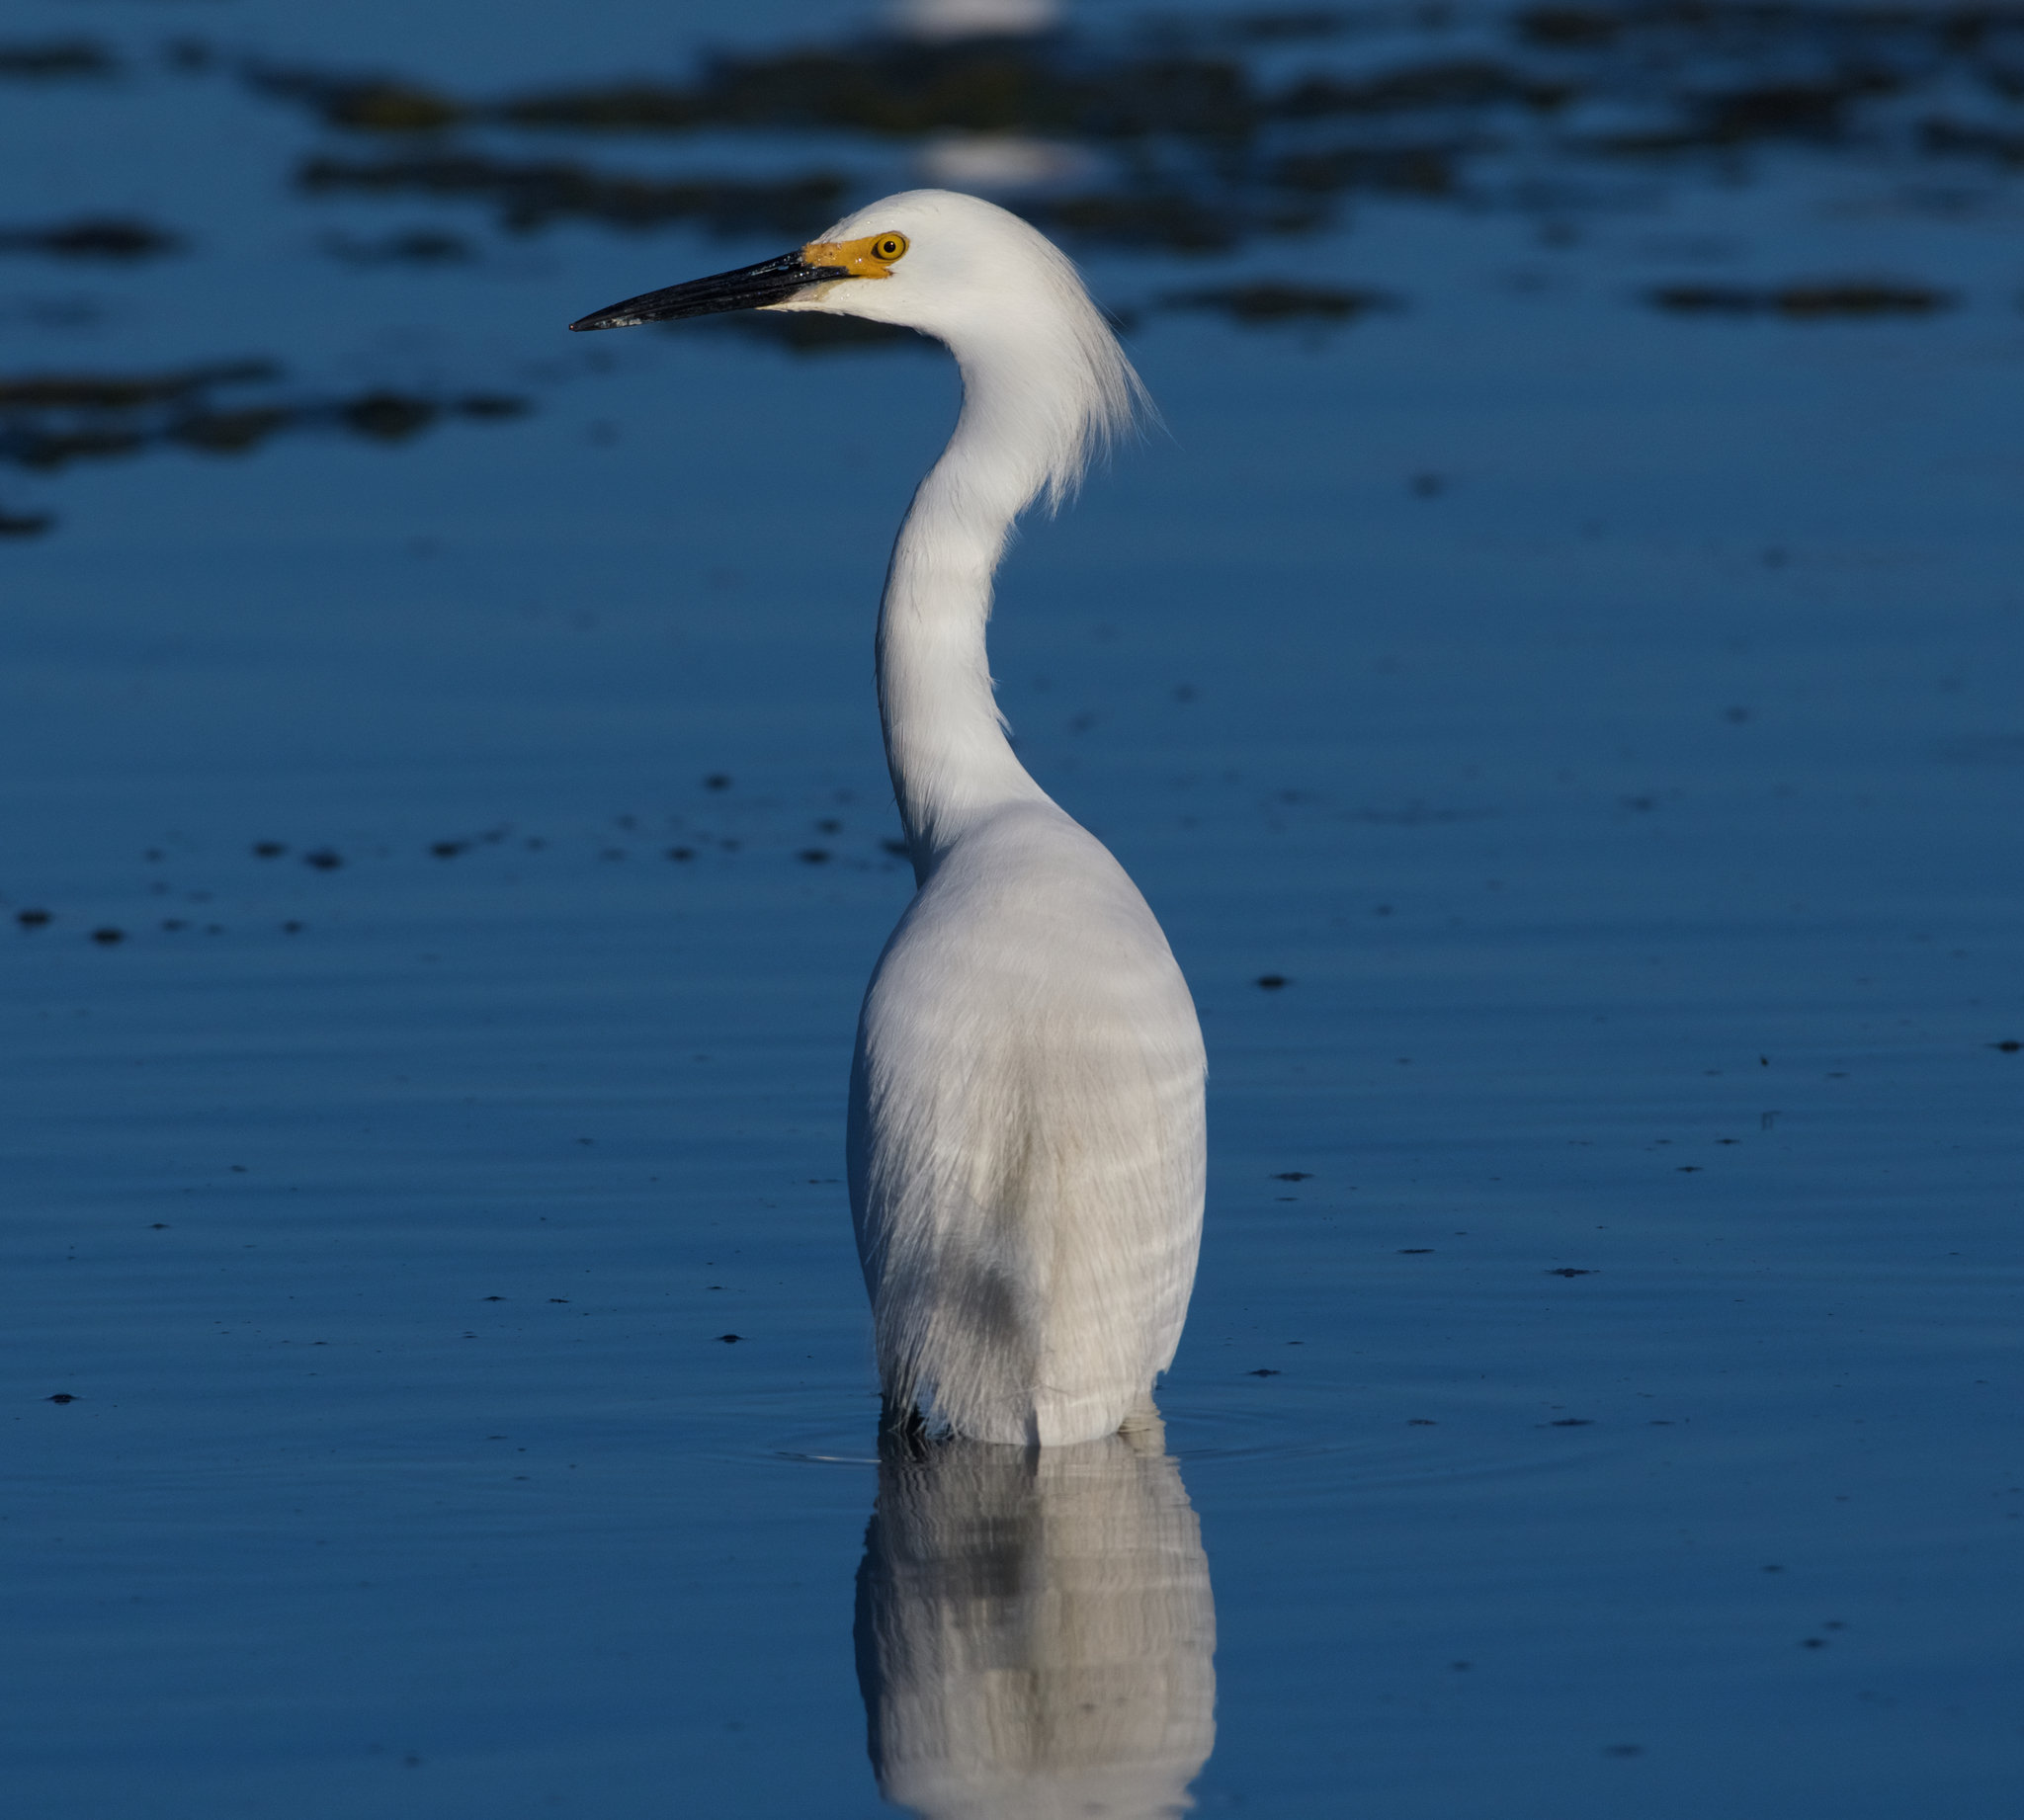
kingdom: Animalia
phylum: Chordata
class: Aves
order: Pelecaniformes
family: Ardeidae
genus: Egretta
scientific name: Egretta thula
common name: Snowy egret
